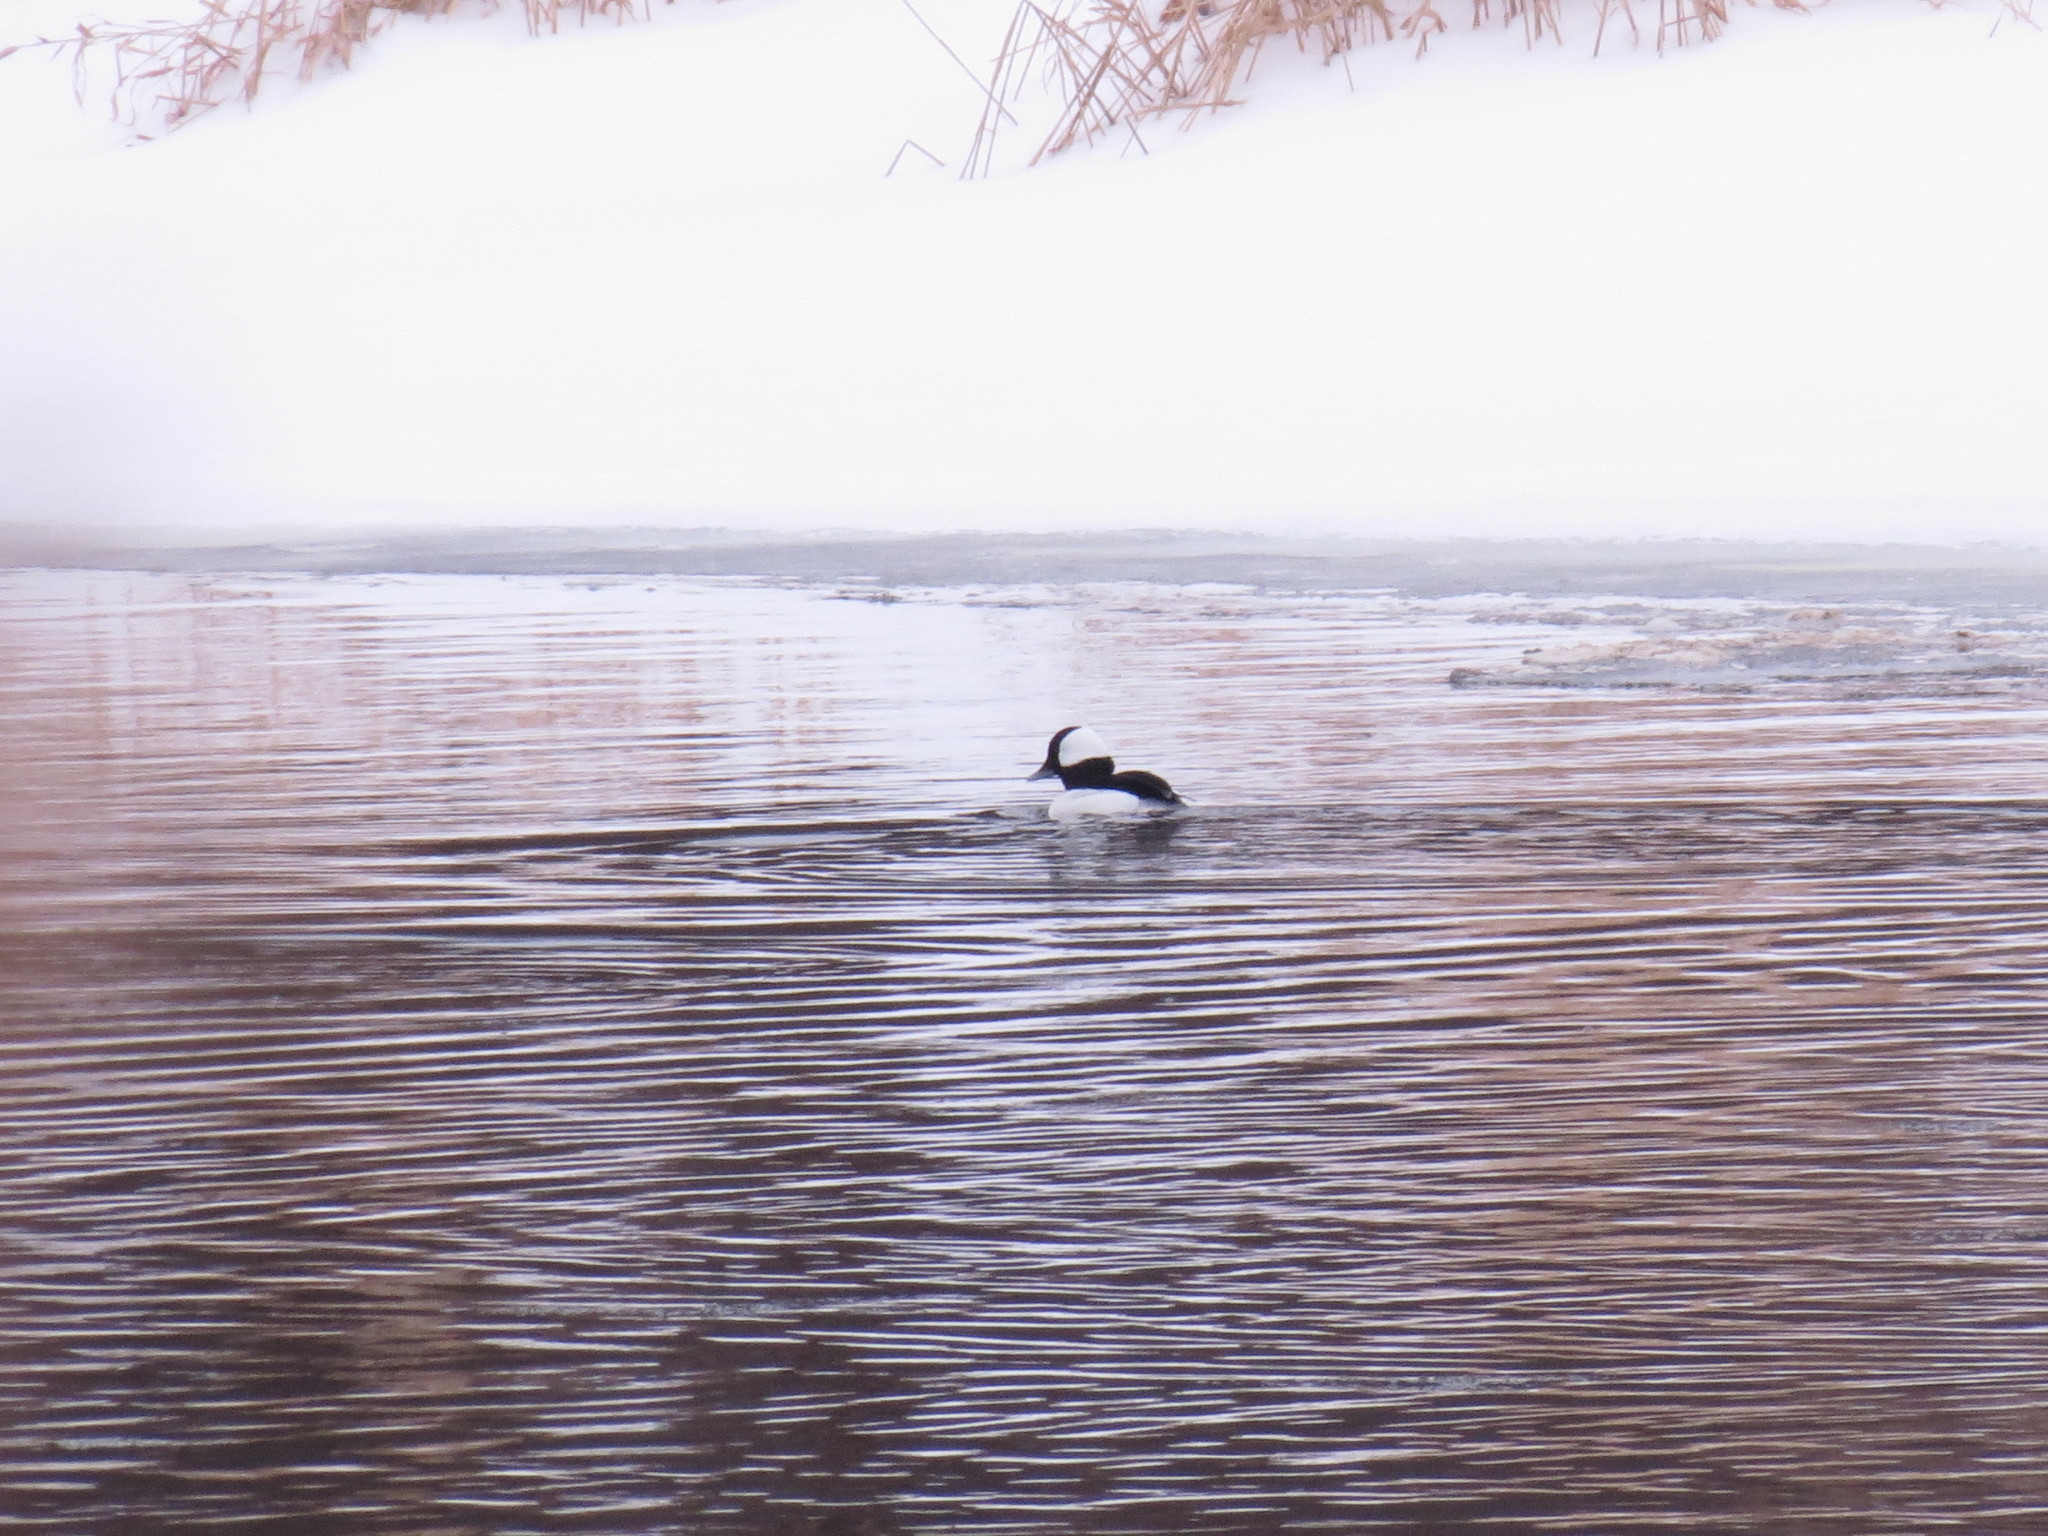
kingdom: Animalia
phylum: Chordata
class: Aves
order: Anseriformes
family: Anatidae
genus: Bucephala
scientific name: Bucephala albeola
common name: Bufflehead
